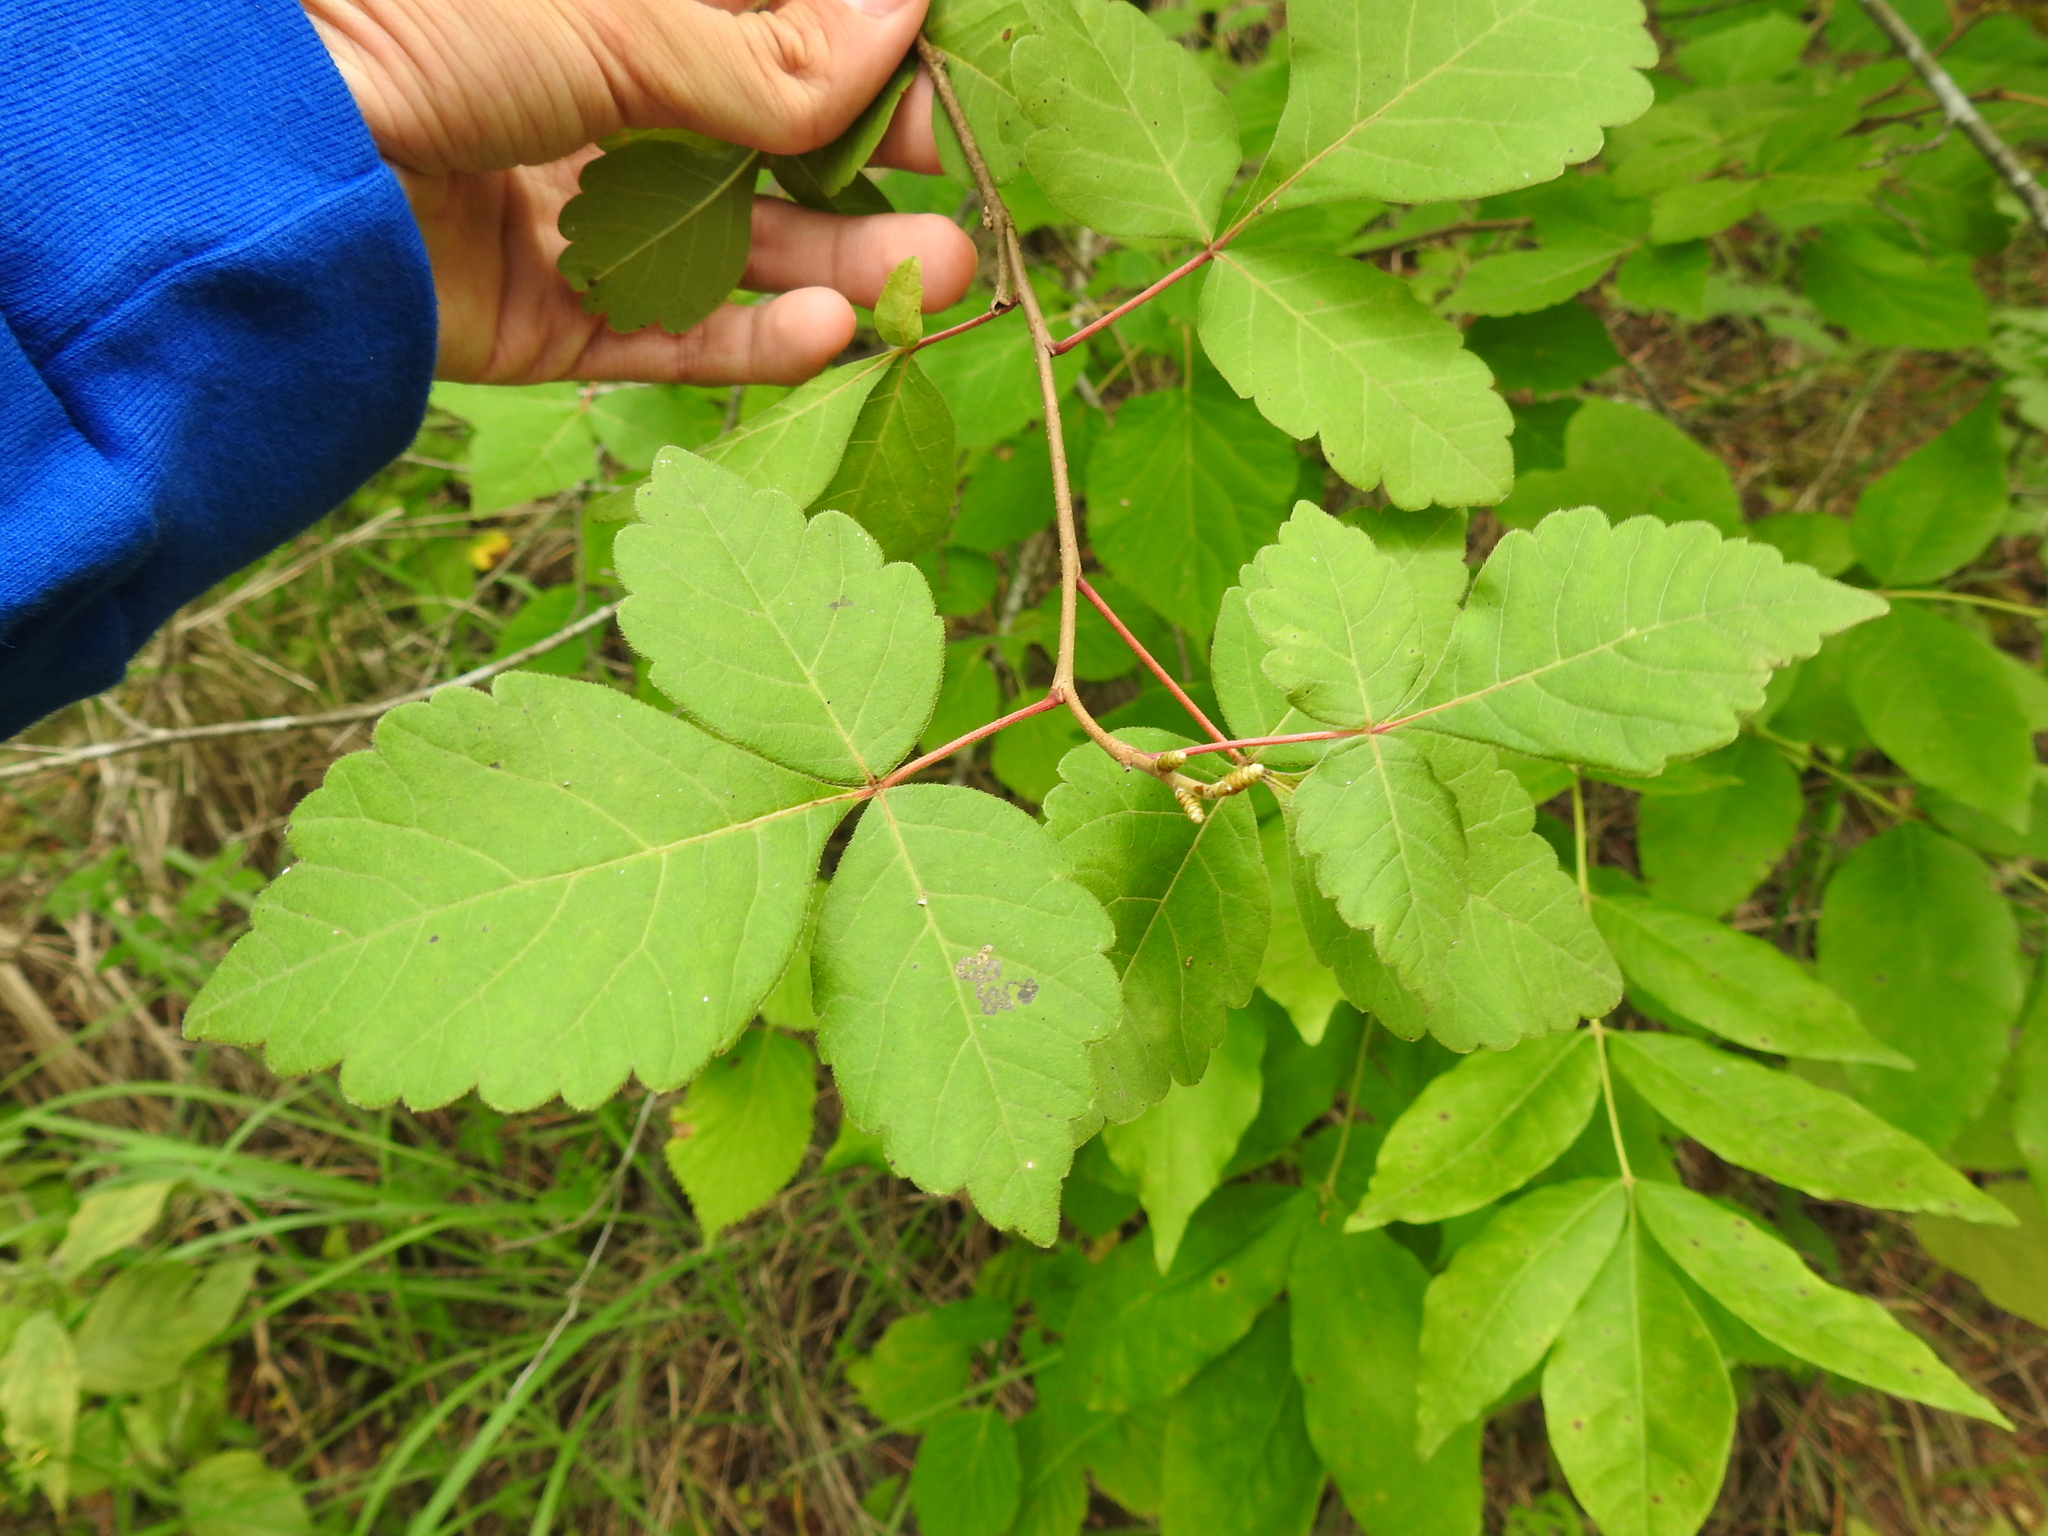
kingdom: Plantae
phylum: Tracheophyta
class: Magnoliopsida
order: Sapindales
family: Anacardiaceae
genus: Rhus
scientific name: Rhus aromatica
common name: Aromatic sumac
